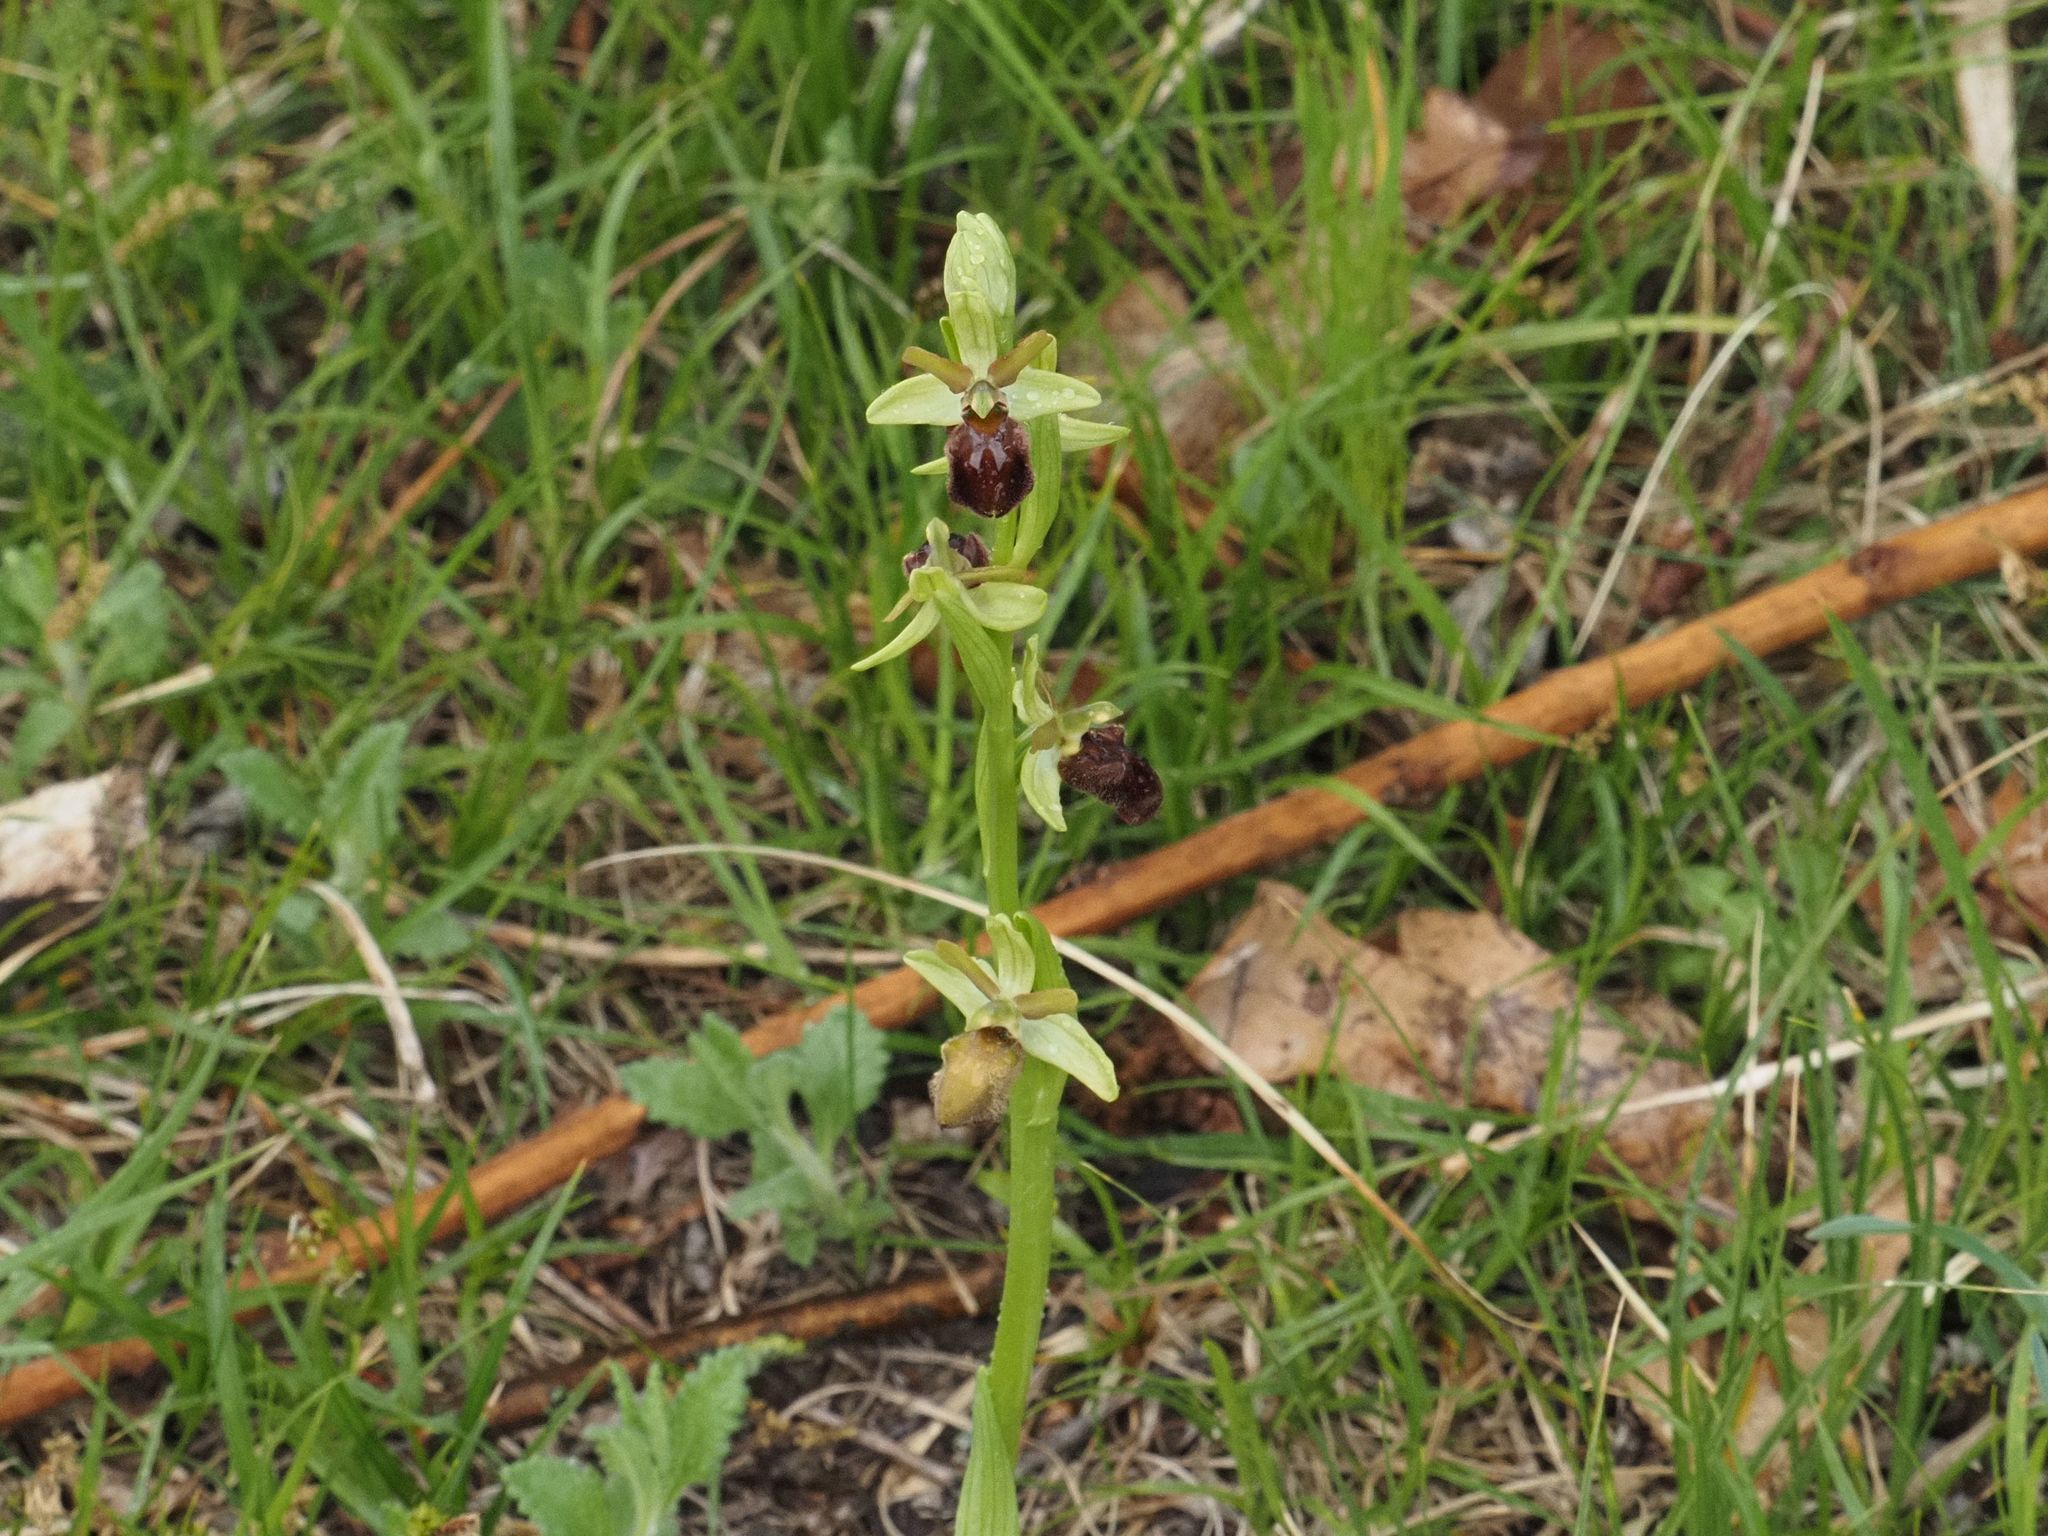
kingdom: Plantae
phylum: Tracheophyta
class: Liliopsida
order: Asparagales
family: Orchidaceae
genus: Ophrys
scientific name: Ophrys sphegodes
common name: Early spider-orchid
